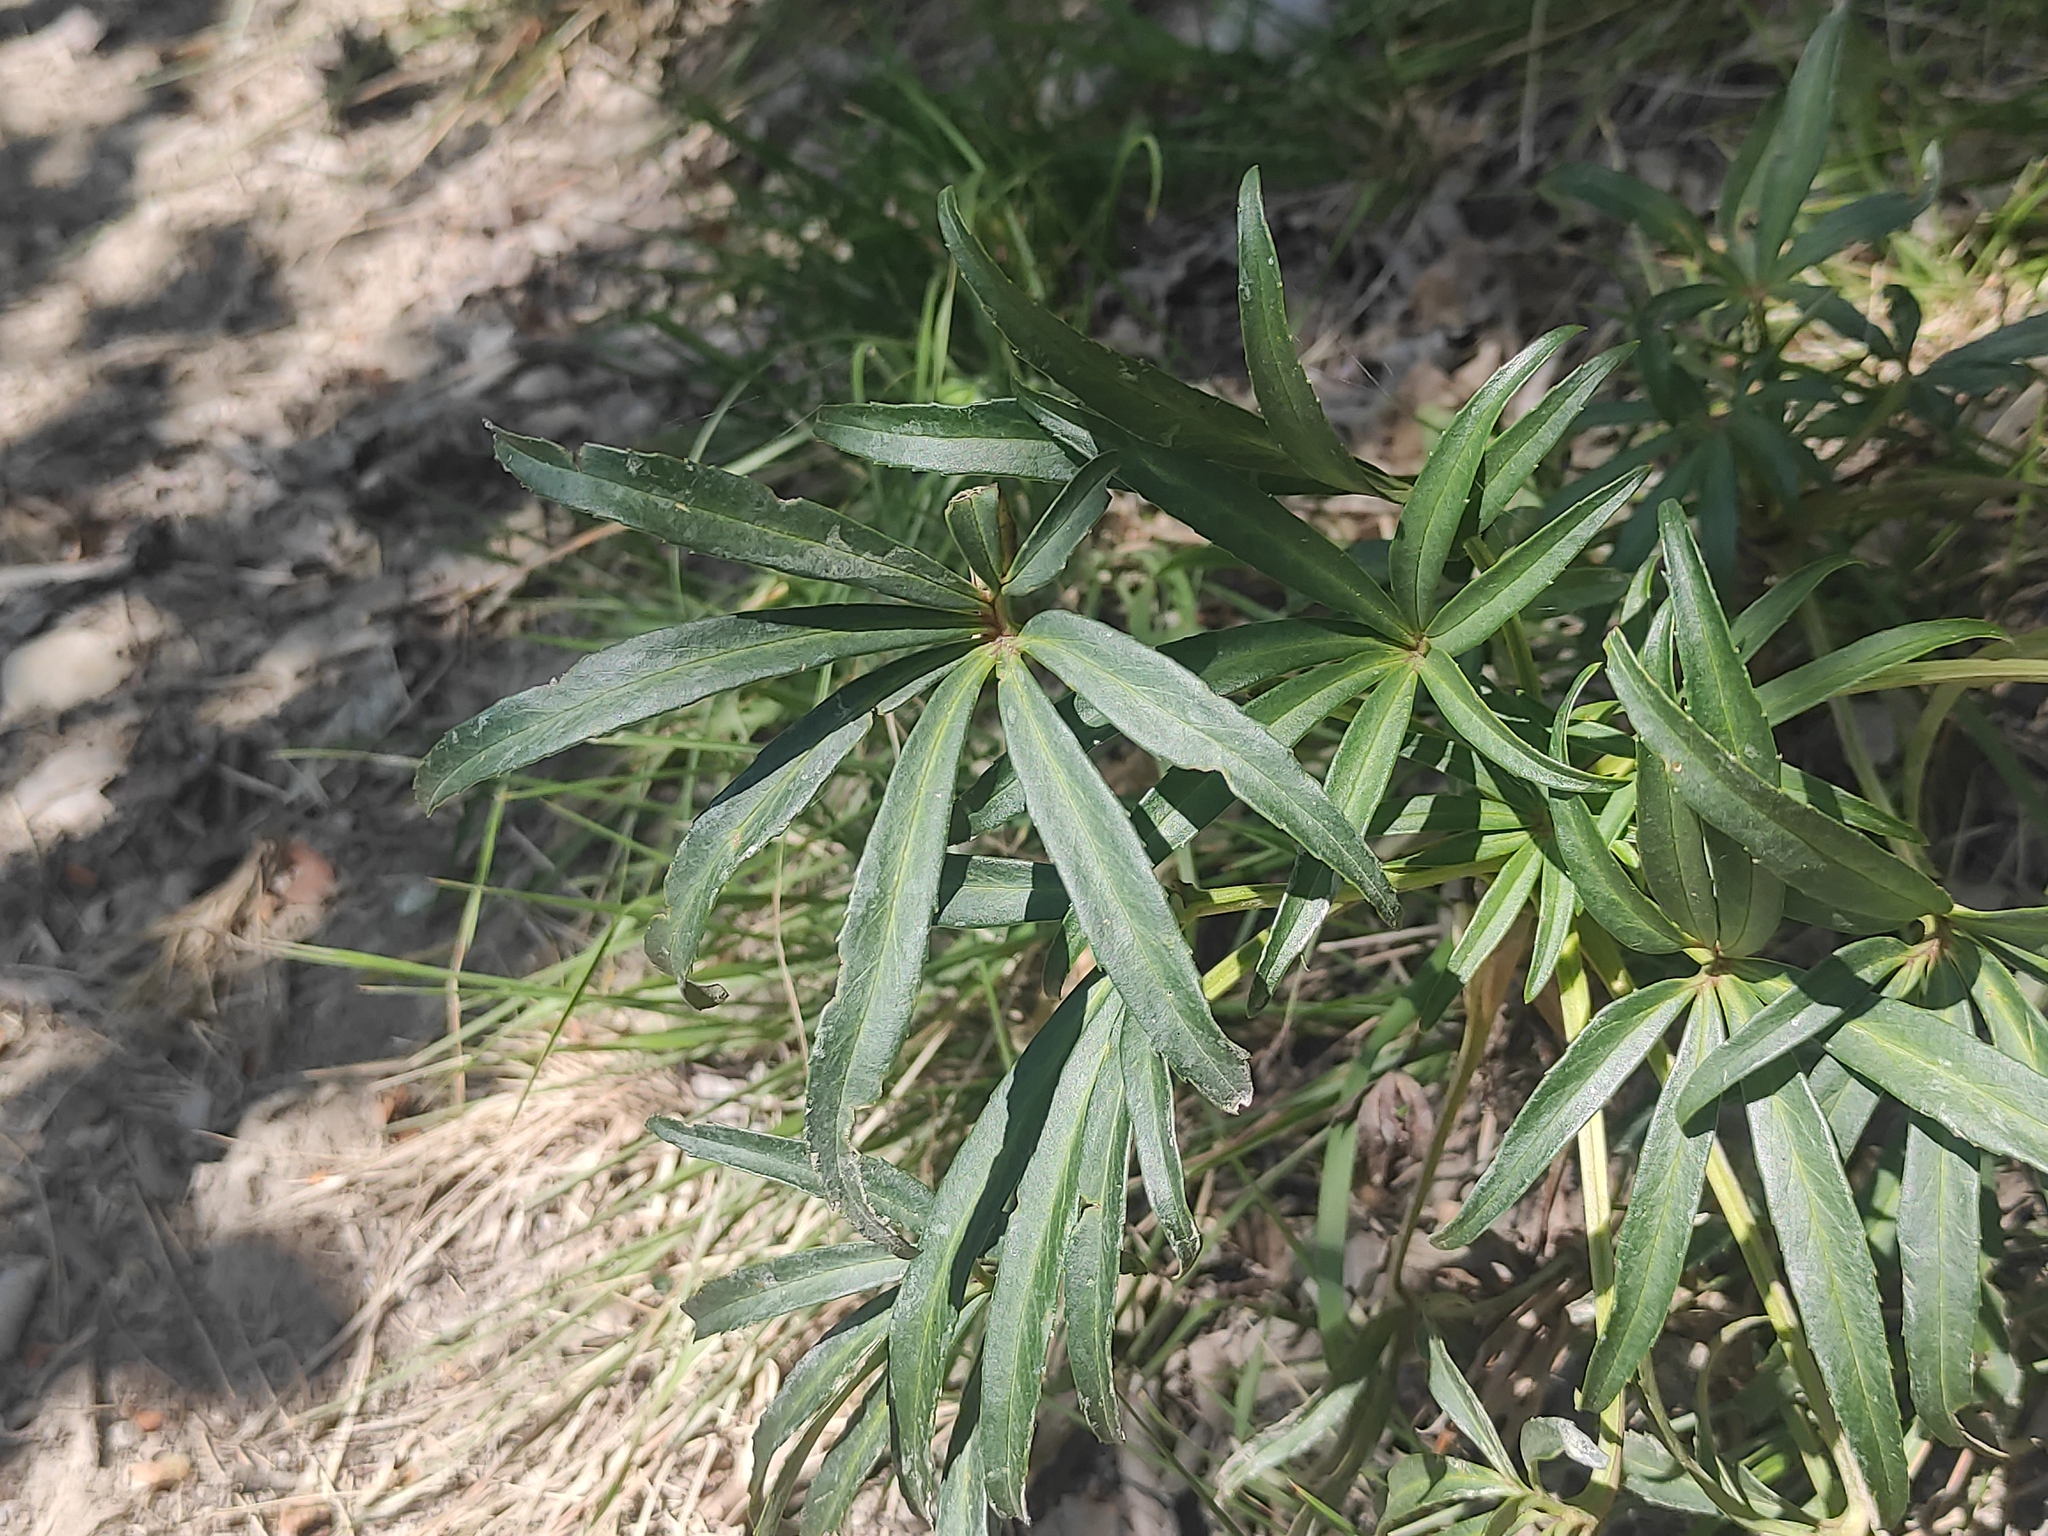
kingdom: Plantae
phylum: Tracheophyta
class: Magnoliopsida
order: Ranunculales
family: Ranunculaceae
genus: Helleborus
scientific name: Helleborus foetidus
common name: Stinking hellebore
